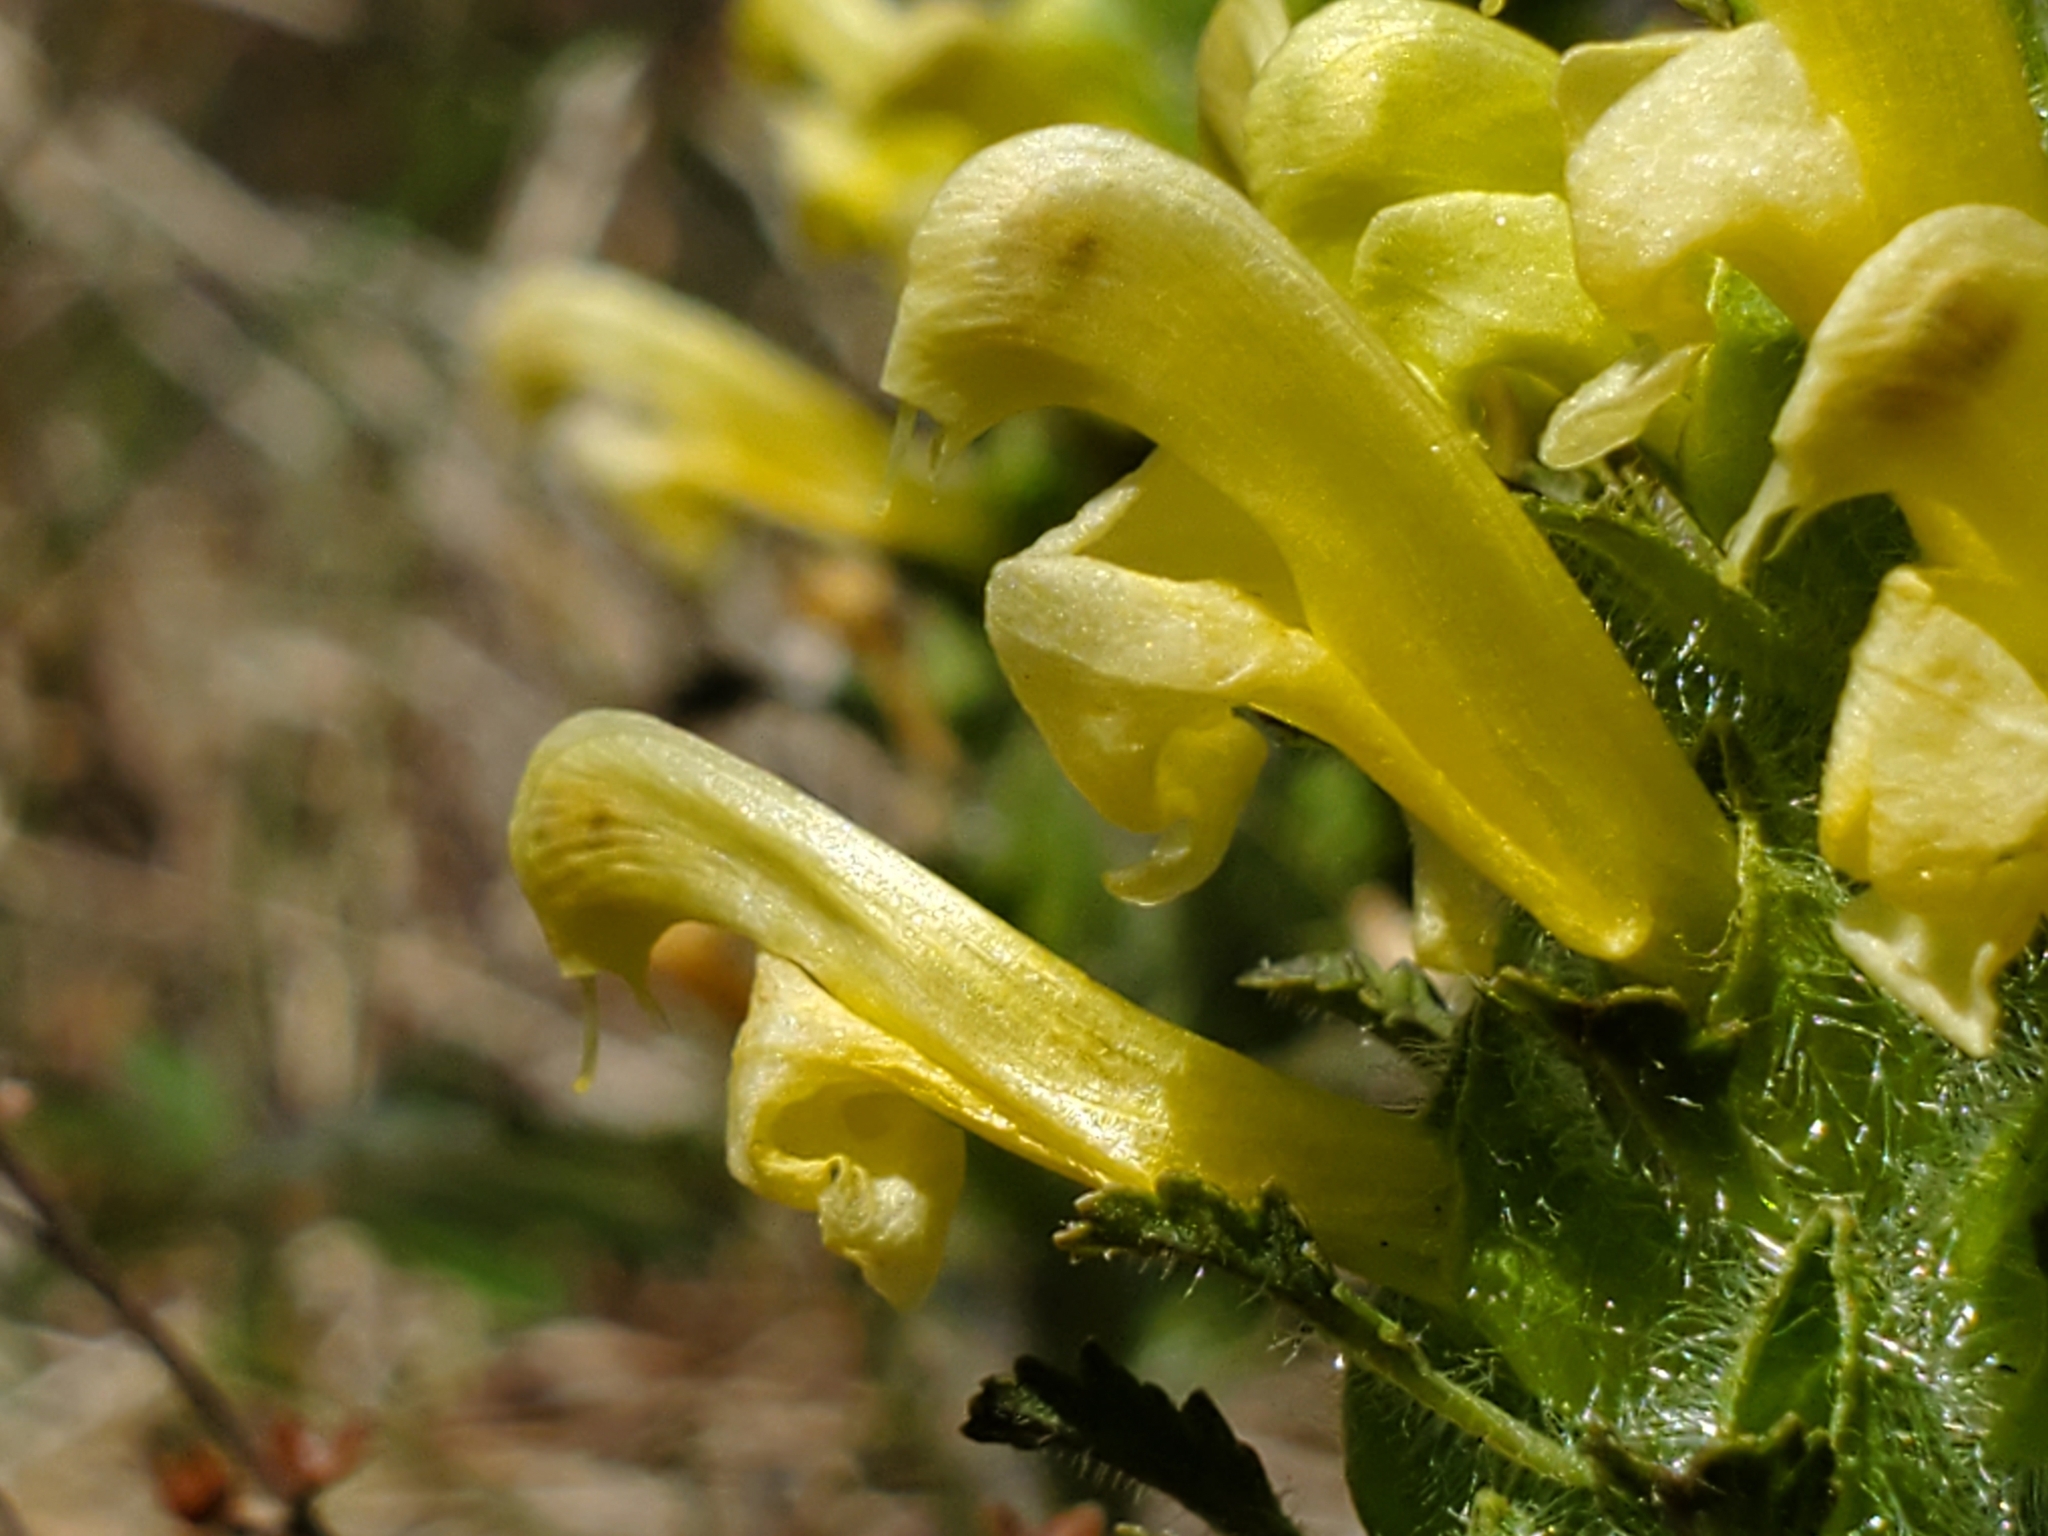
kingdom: Plantae
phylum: Tracheophyta
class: Magnoliopsida
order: Lamiales
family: Orobanchaceae
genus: Pedicularis
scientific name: Pedicularis canadensis
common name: Early lousewort
